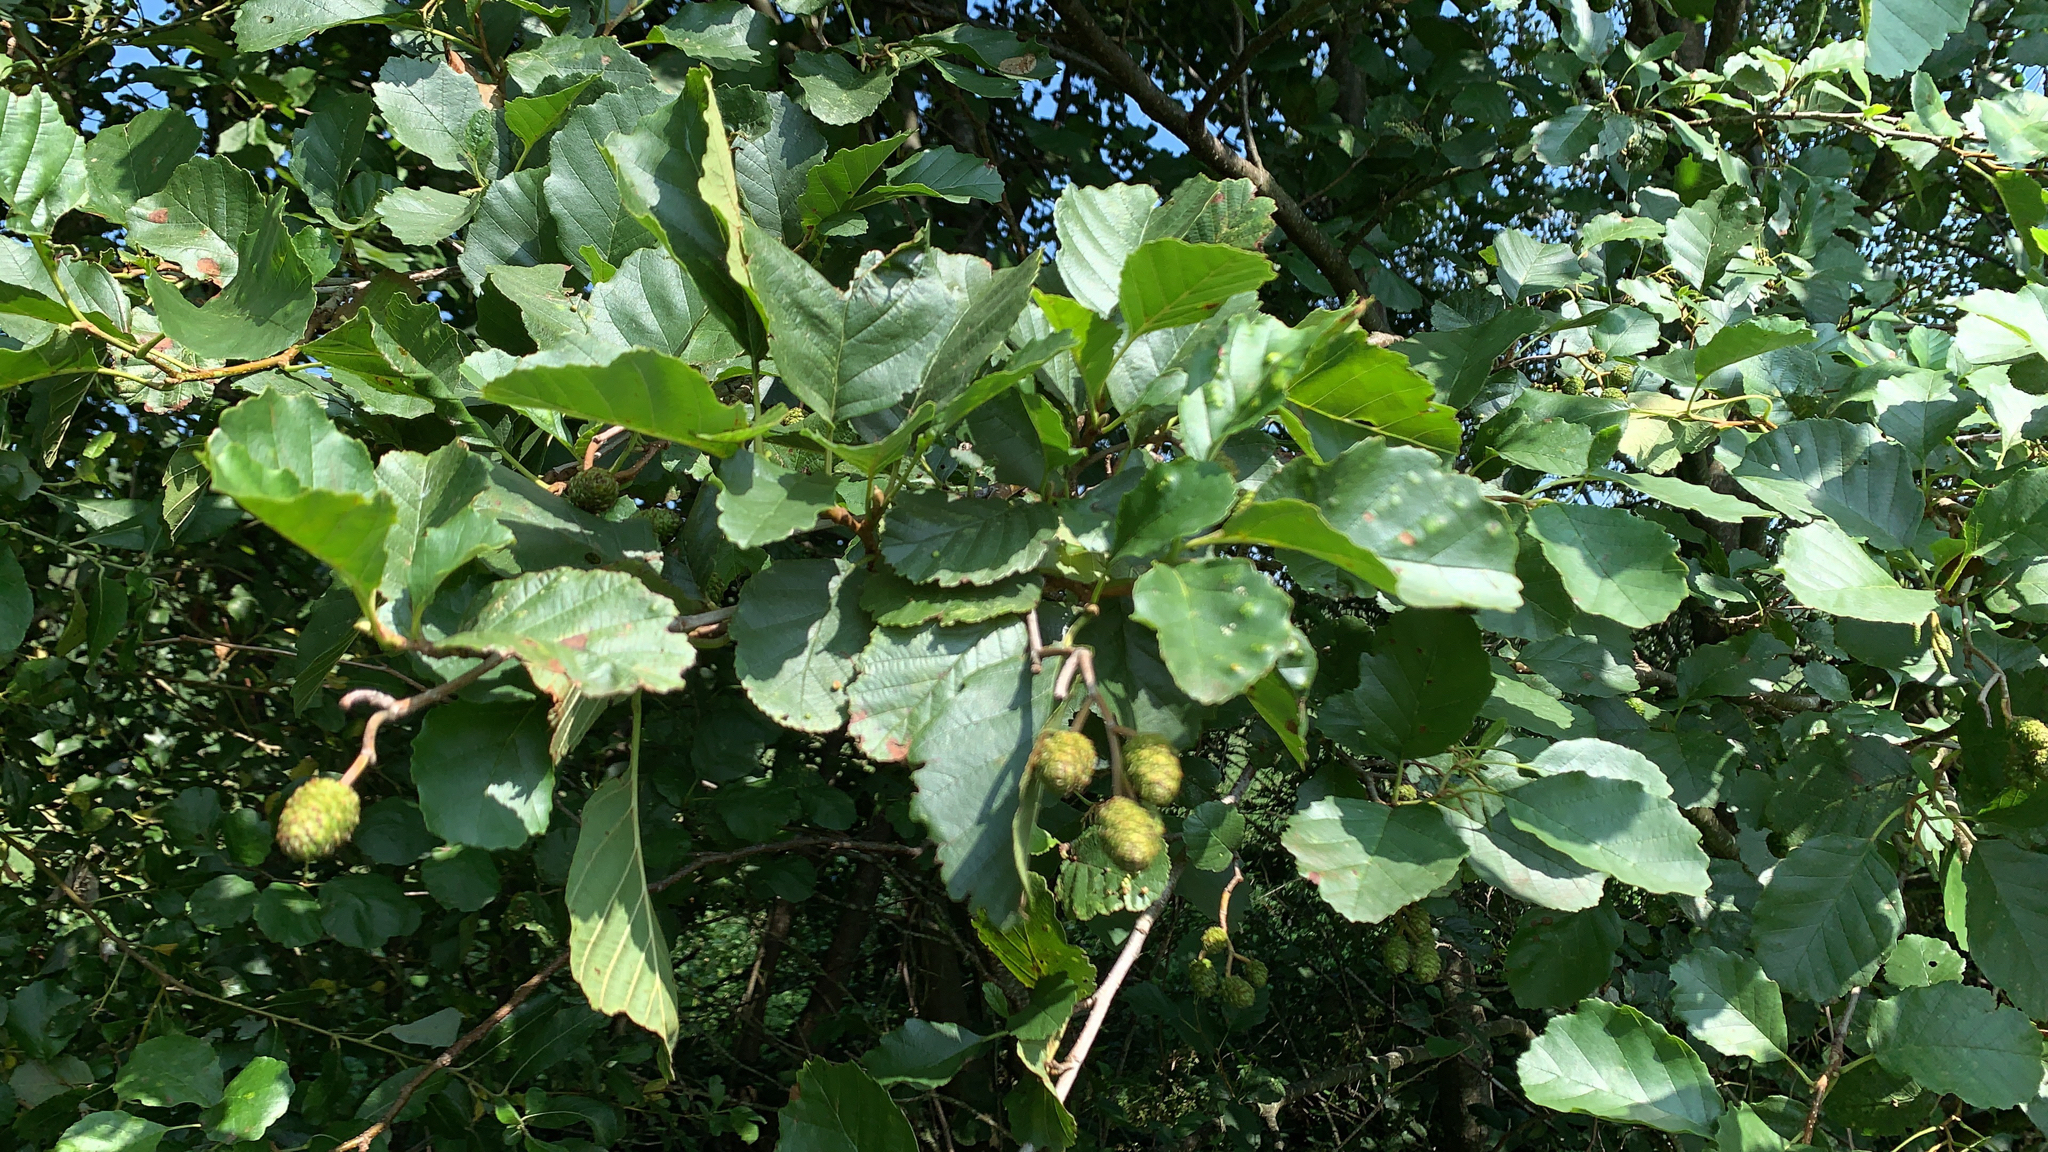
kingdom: Plantae
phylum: Tracheophyta
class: Magnoliopsida
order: Fagales
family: Betulaceae
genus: Alnus
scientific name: Alnus glutinosa
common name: Black alder
